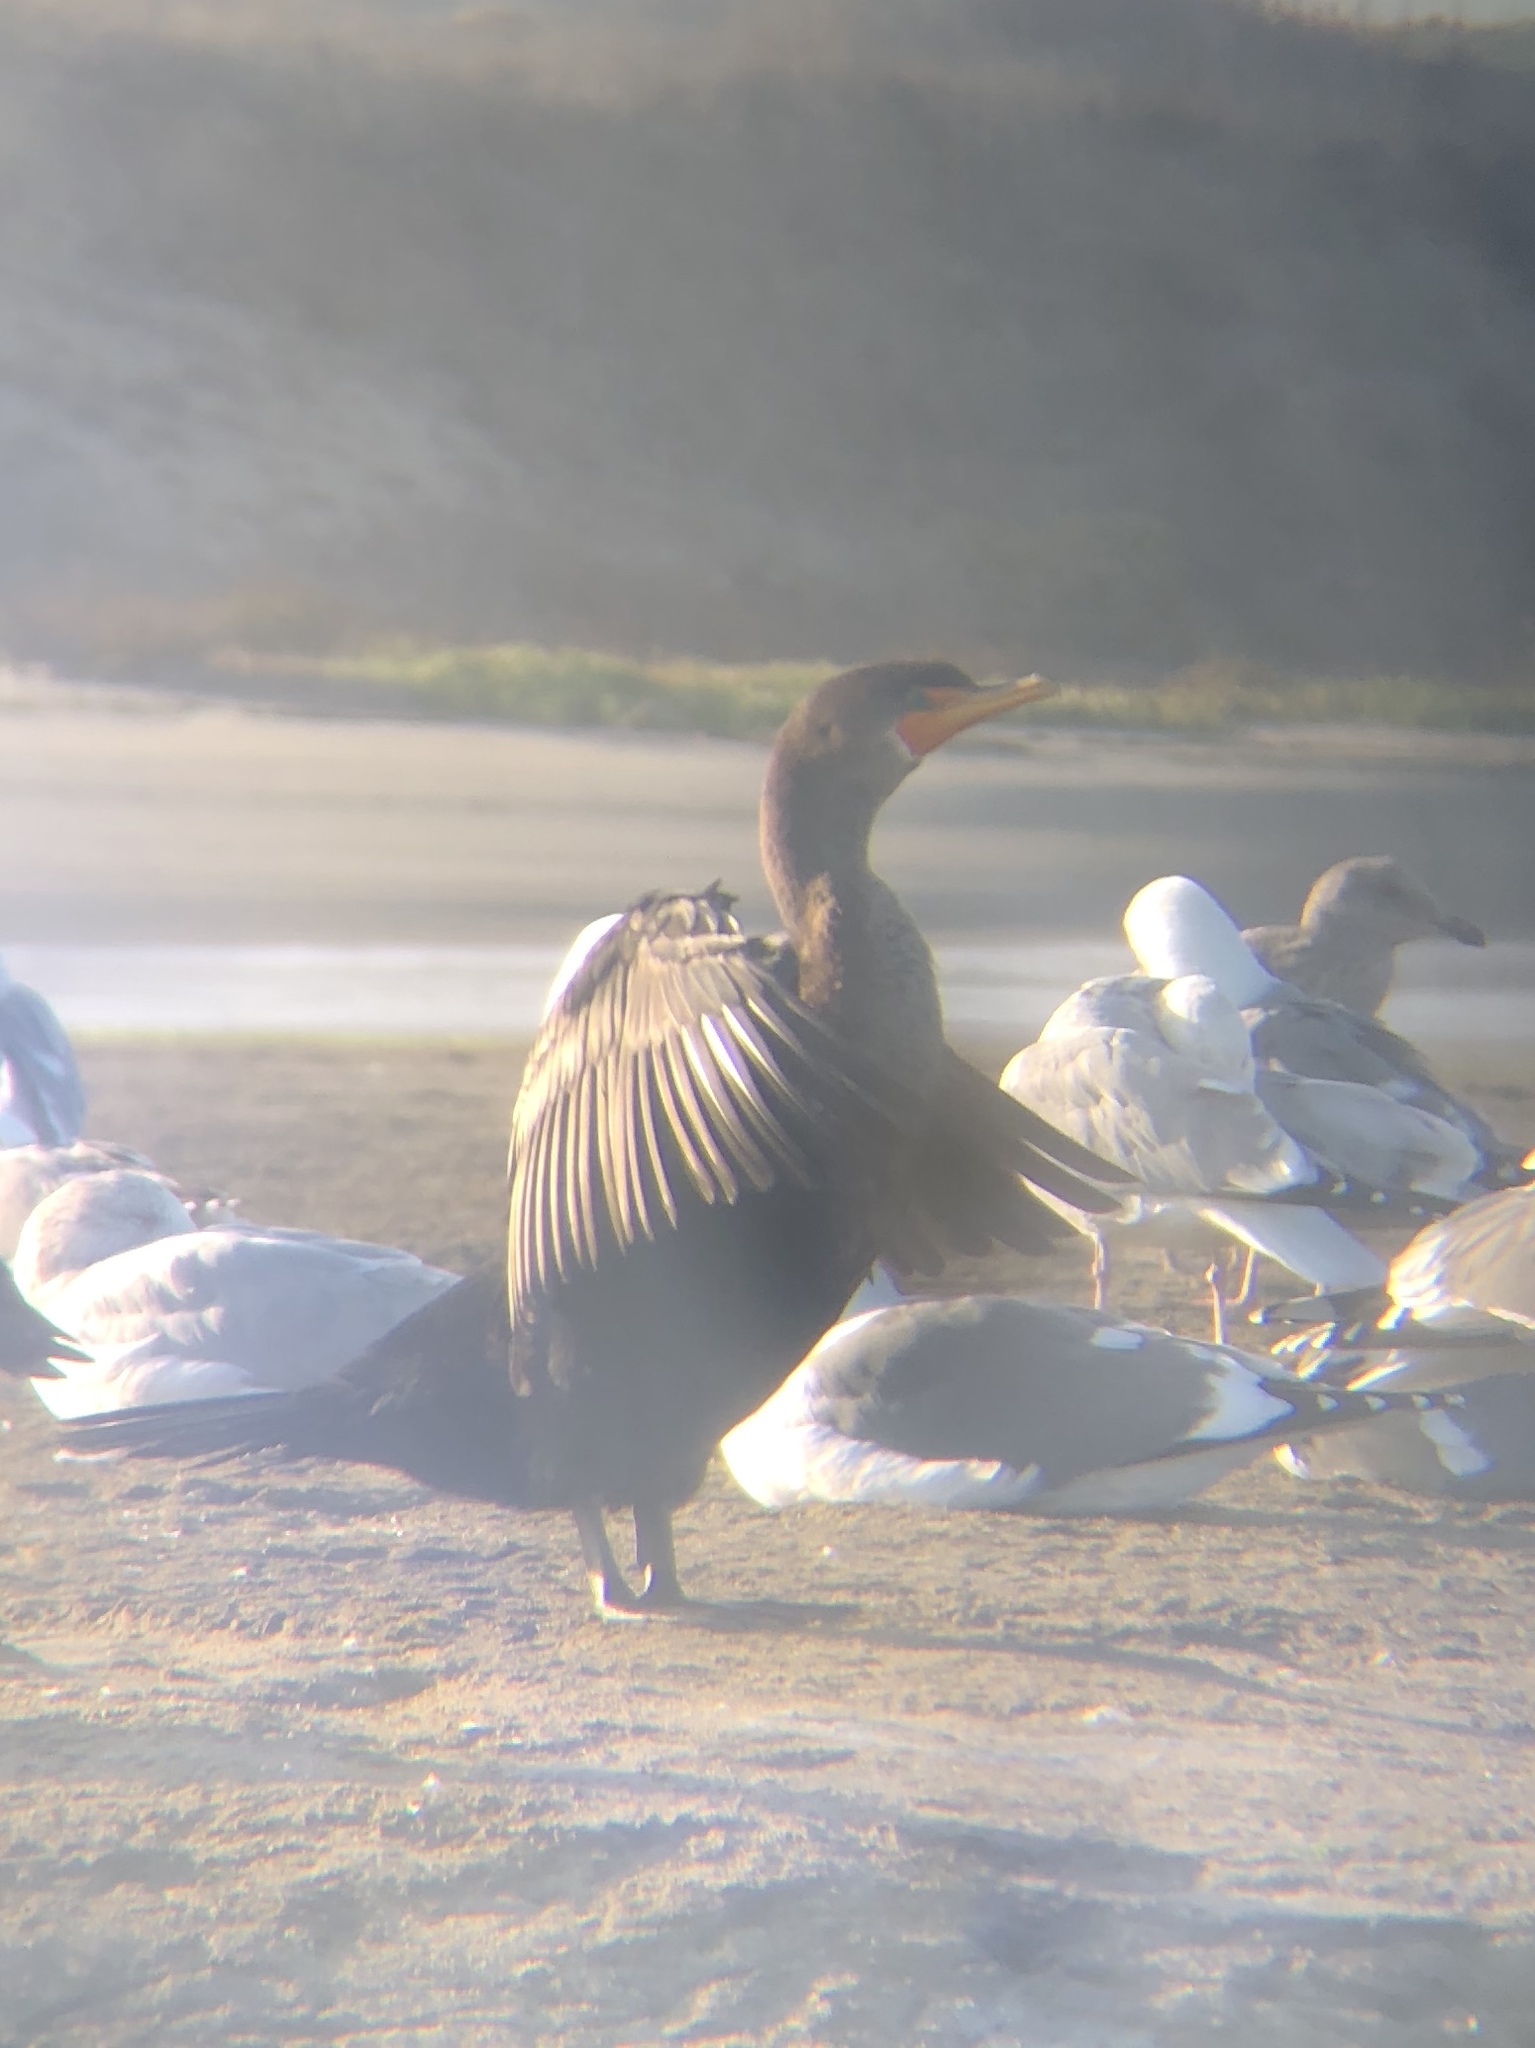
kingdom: Animalia
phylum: Chordata
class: Aves
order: Suliformes
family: Phalacrocoracidae
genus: Phalacrocorax
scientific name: Phalacrocorax auritus
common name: Double-crested cormorant
